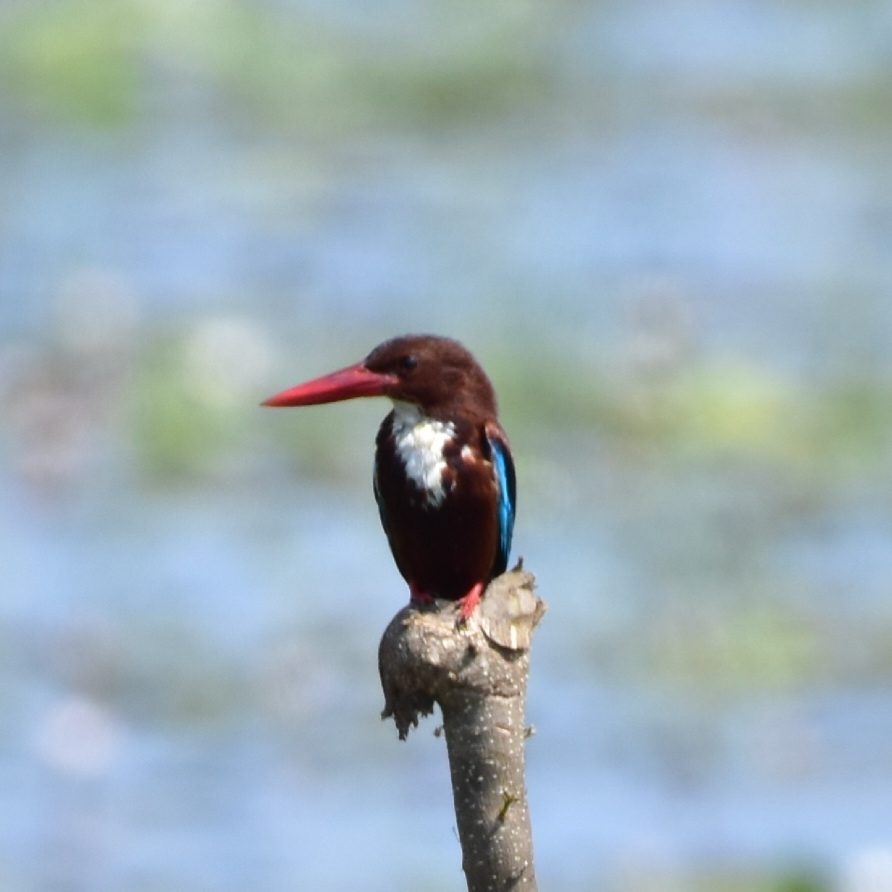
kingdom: Animalia
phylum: Chordata
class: Aves
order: Coraciiformes
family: Alcedinidae
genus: Halcyon
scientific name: Halcyon smyrnensis
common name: White-throated kingfisher
